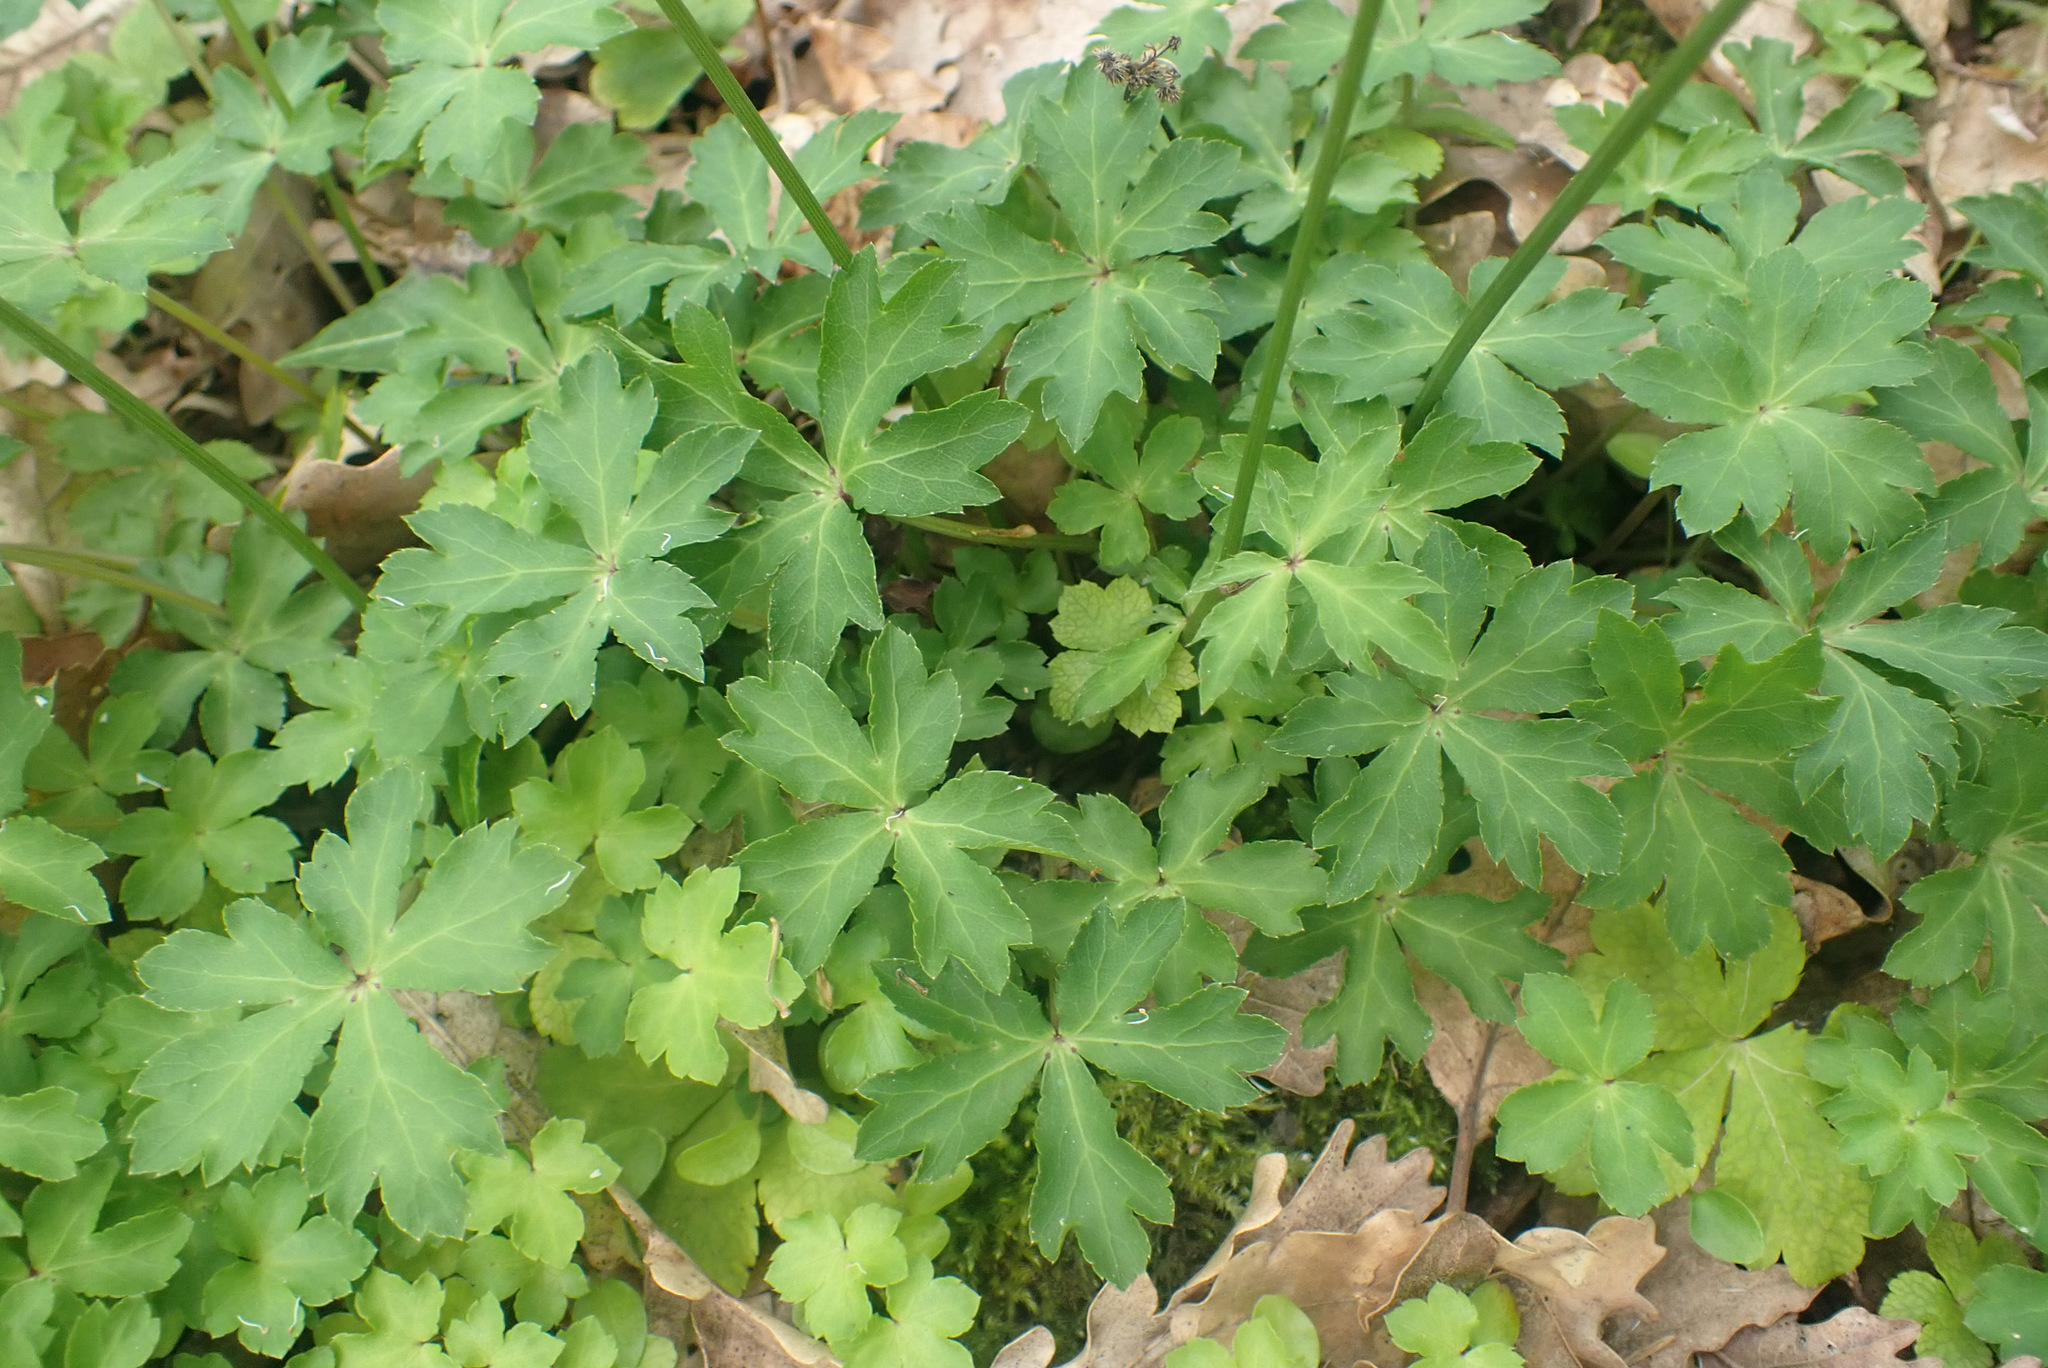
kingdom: Plantae
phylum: Tracheophyta
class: Magnoliopsida
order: Apiales
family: Apiaceae
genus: Sanicula
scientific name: Sanicula europaea
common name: Sanicle
